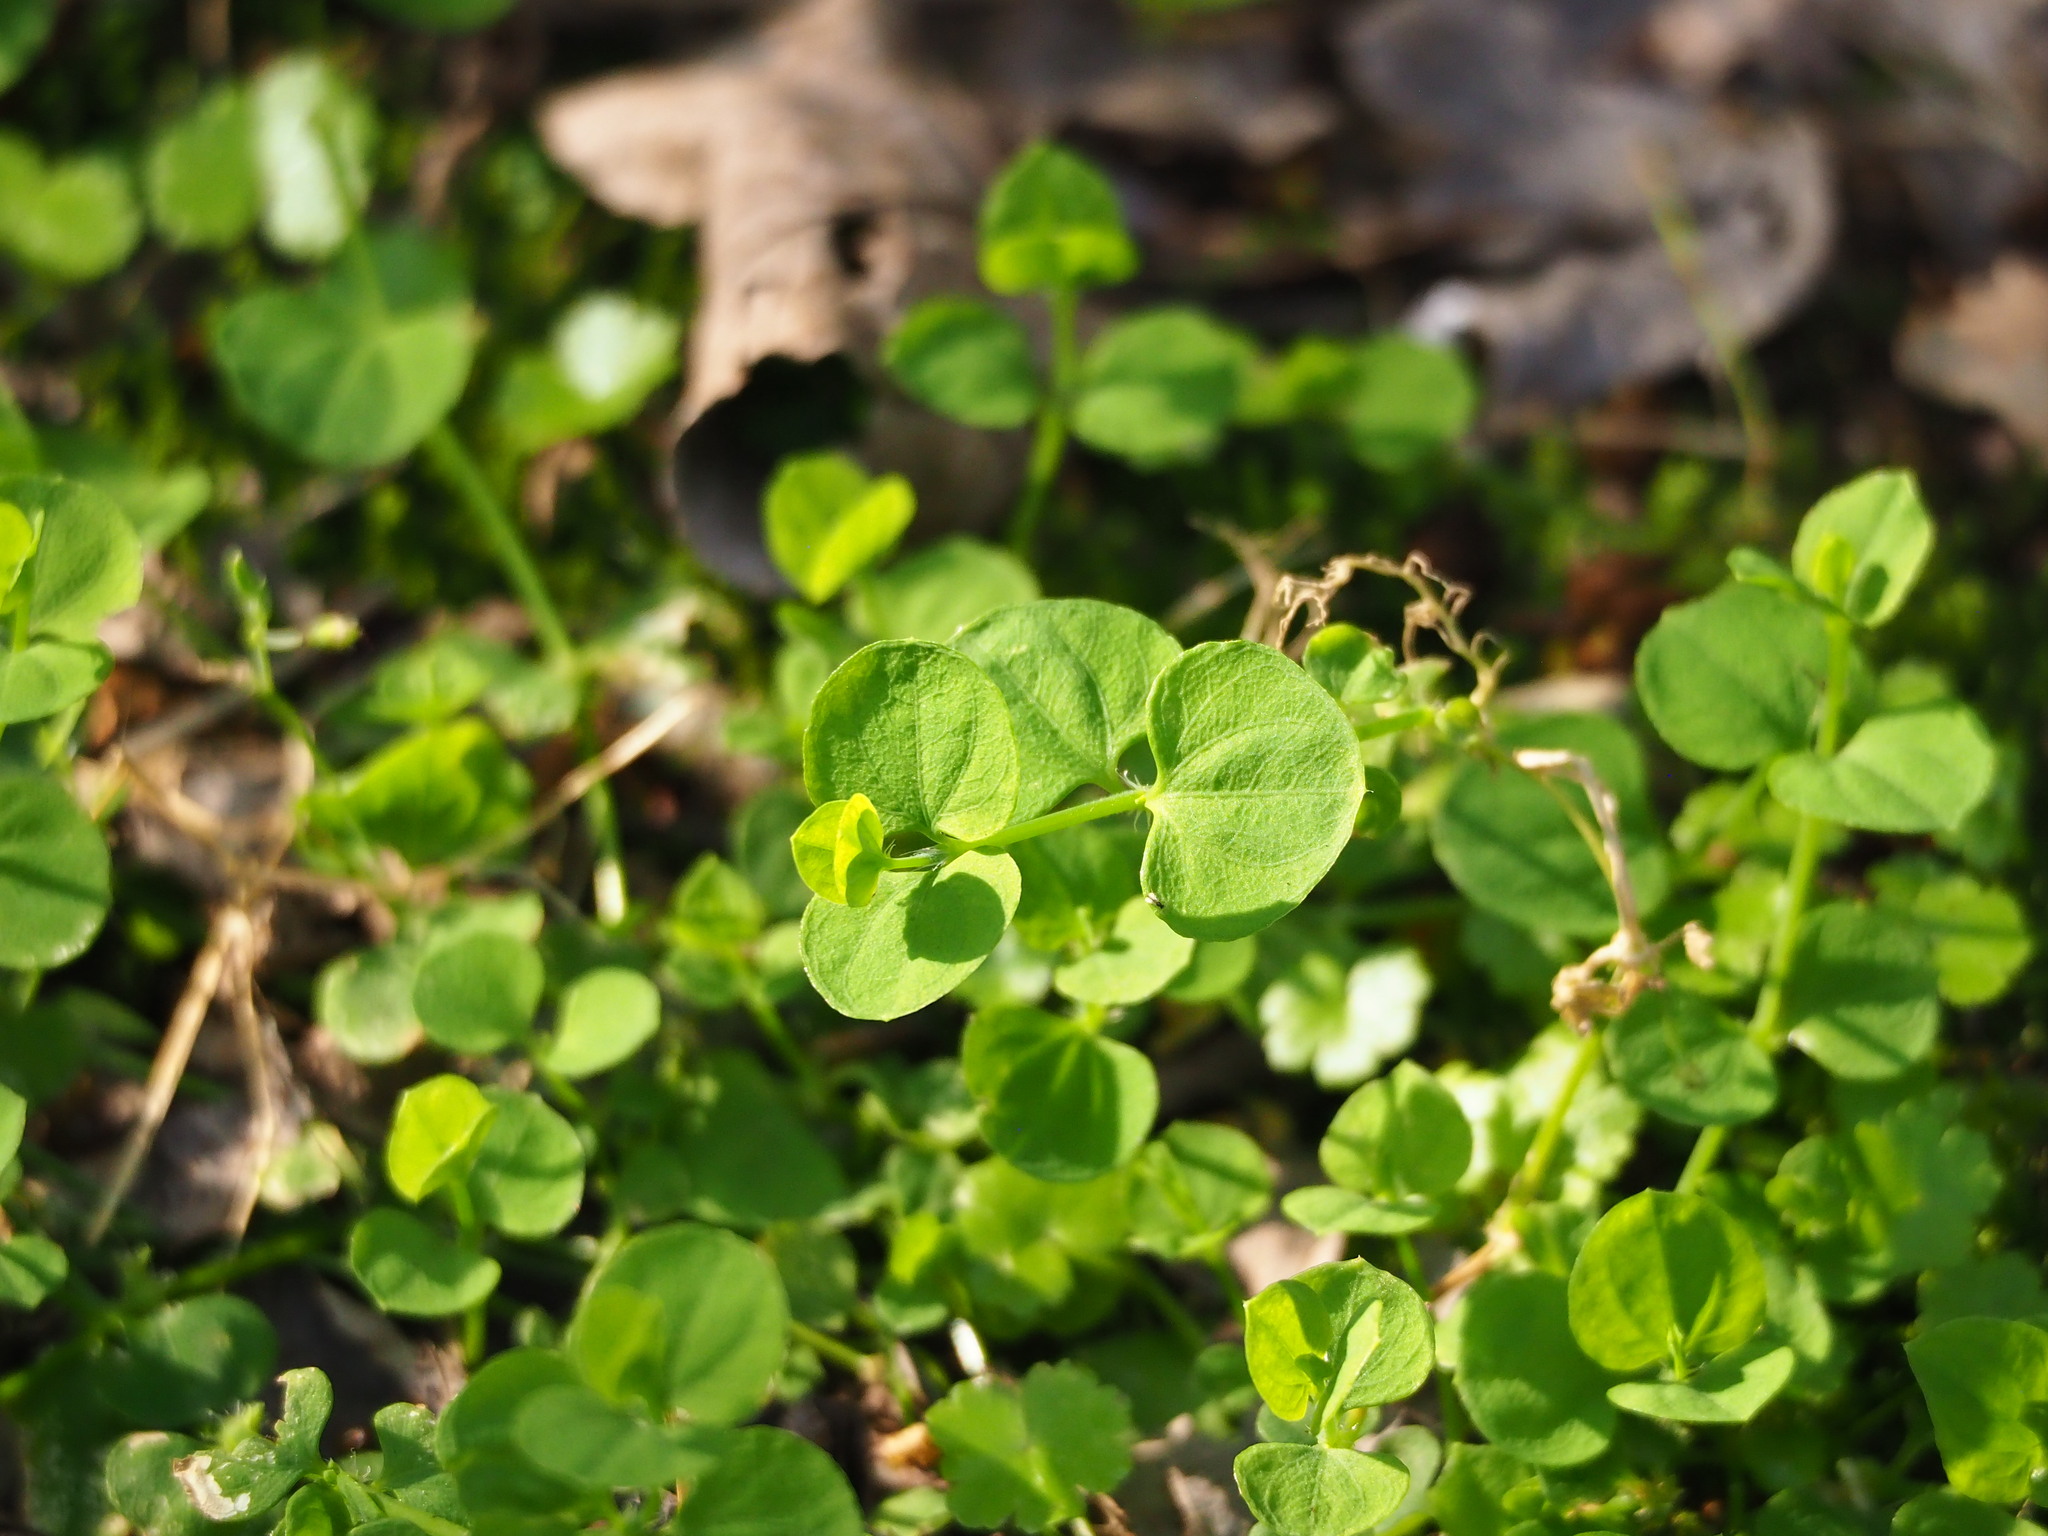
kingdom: Plantae
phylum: Tracheophyta
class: Magnoliopsida
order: Caryophyllales
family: Caryophyllaceae
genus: Drymaria
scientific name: Drymaria cordata
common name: Whitesnow
